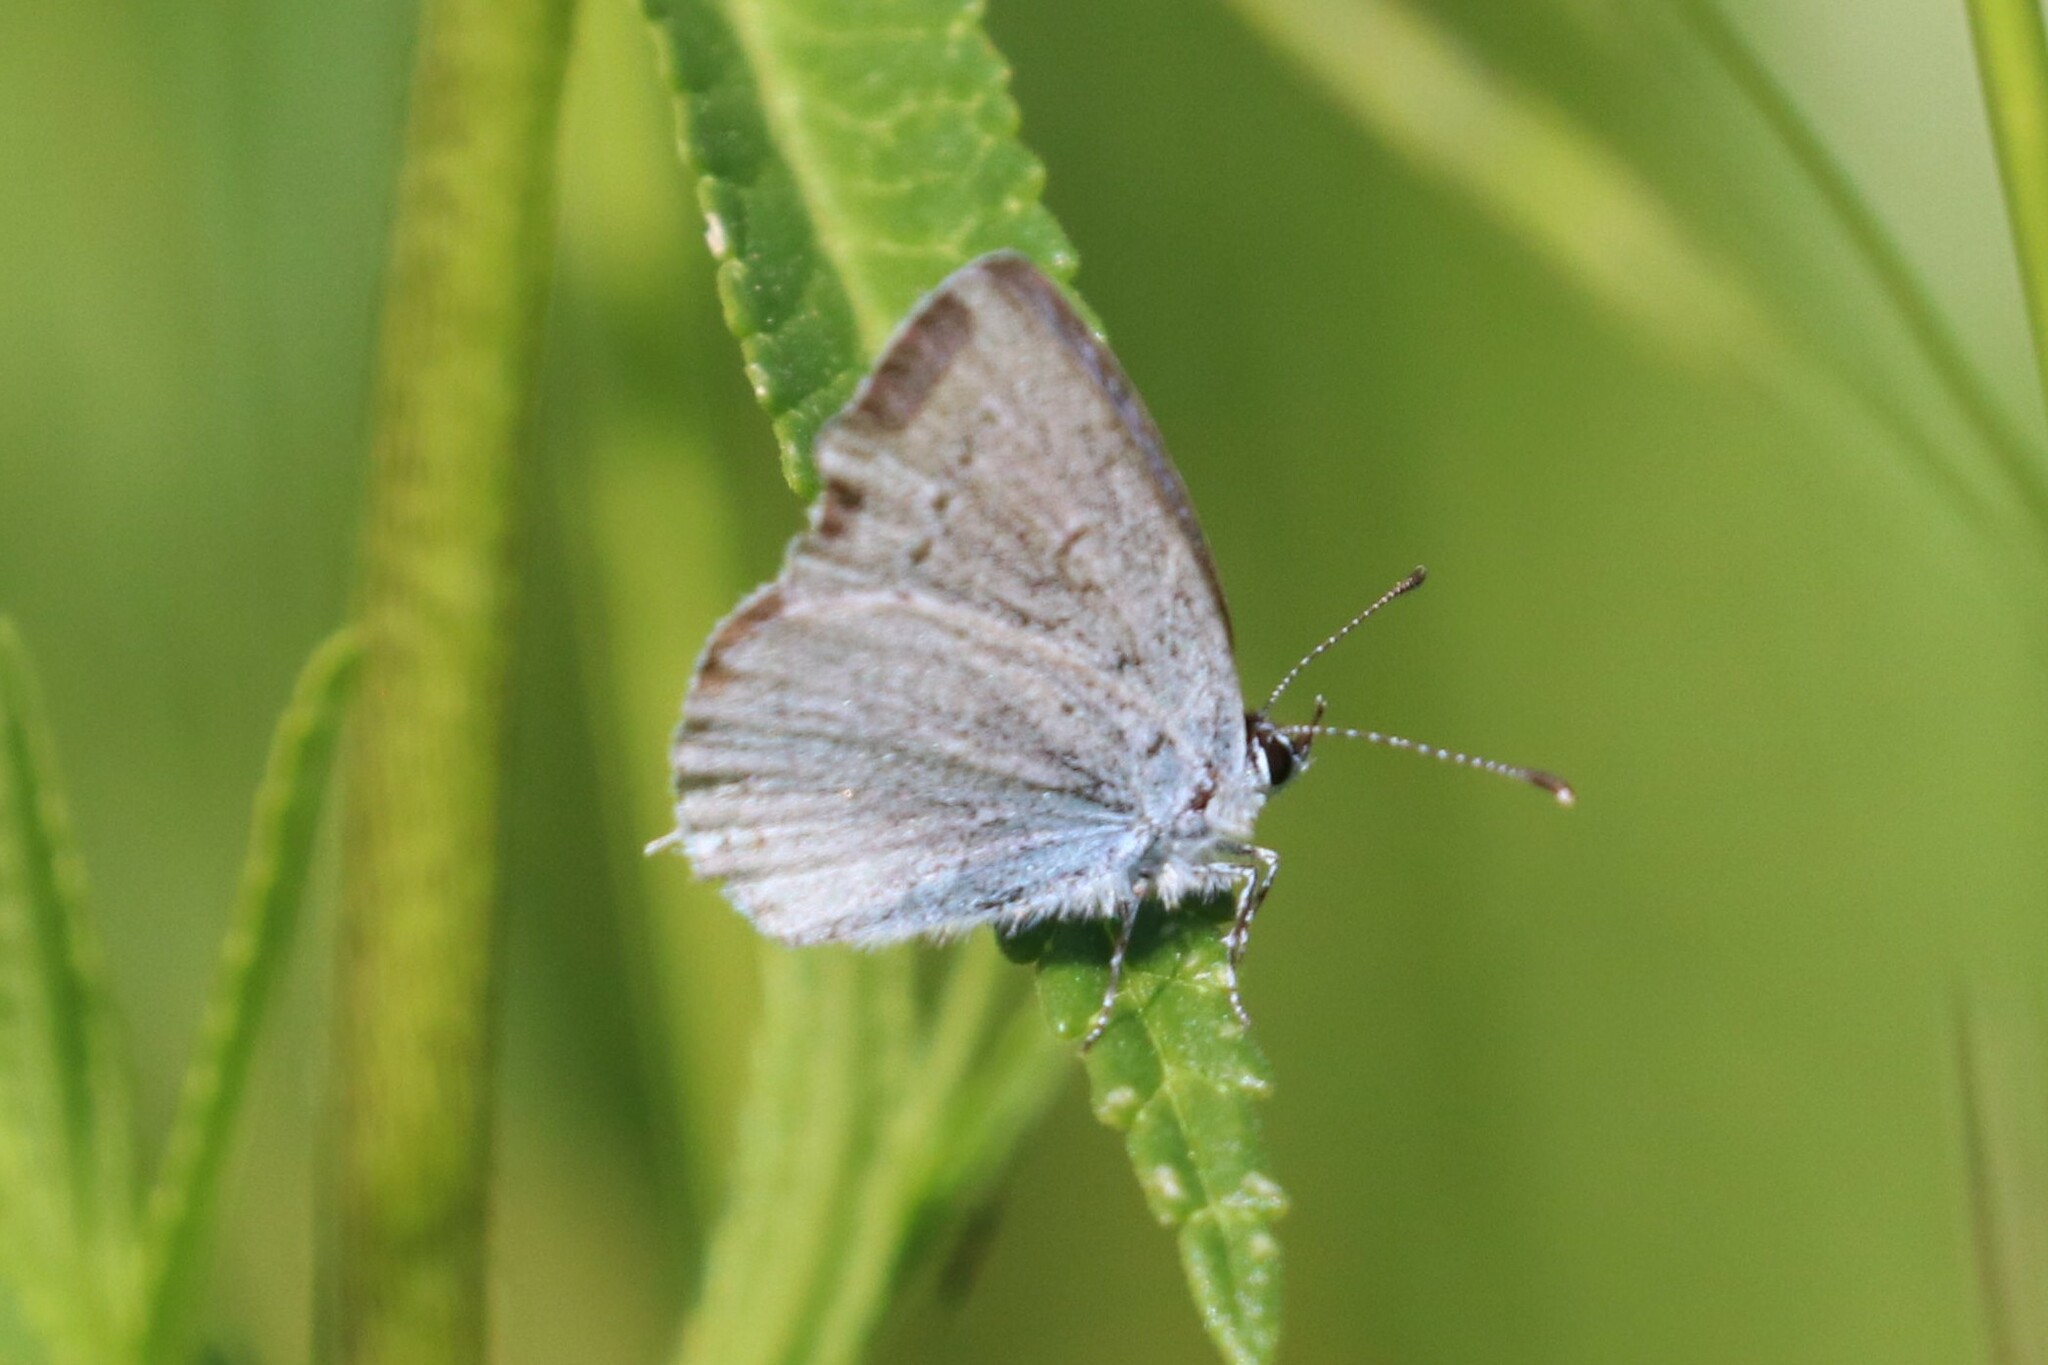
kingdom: Animalia
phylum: Arthropoda
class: Insecta
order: Lepidoptera
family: Lycaenidae
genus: Elkalyce
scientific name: Elkalyce argiades
